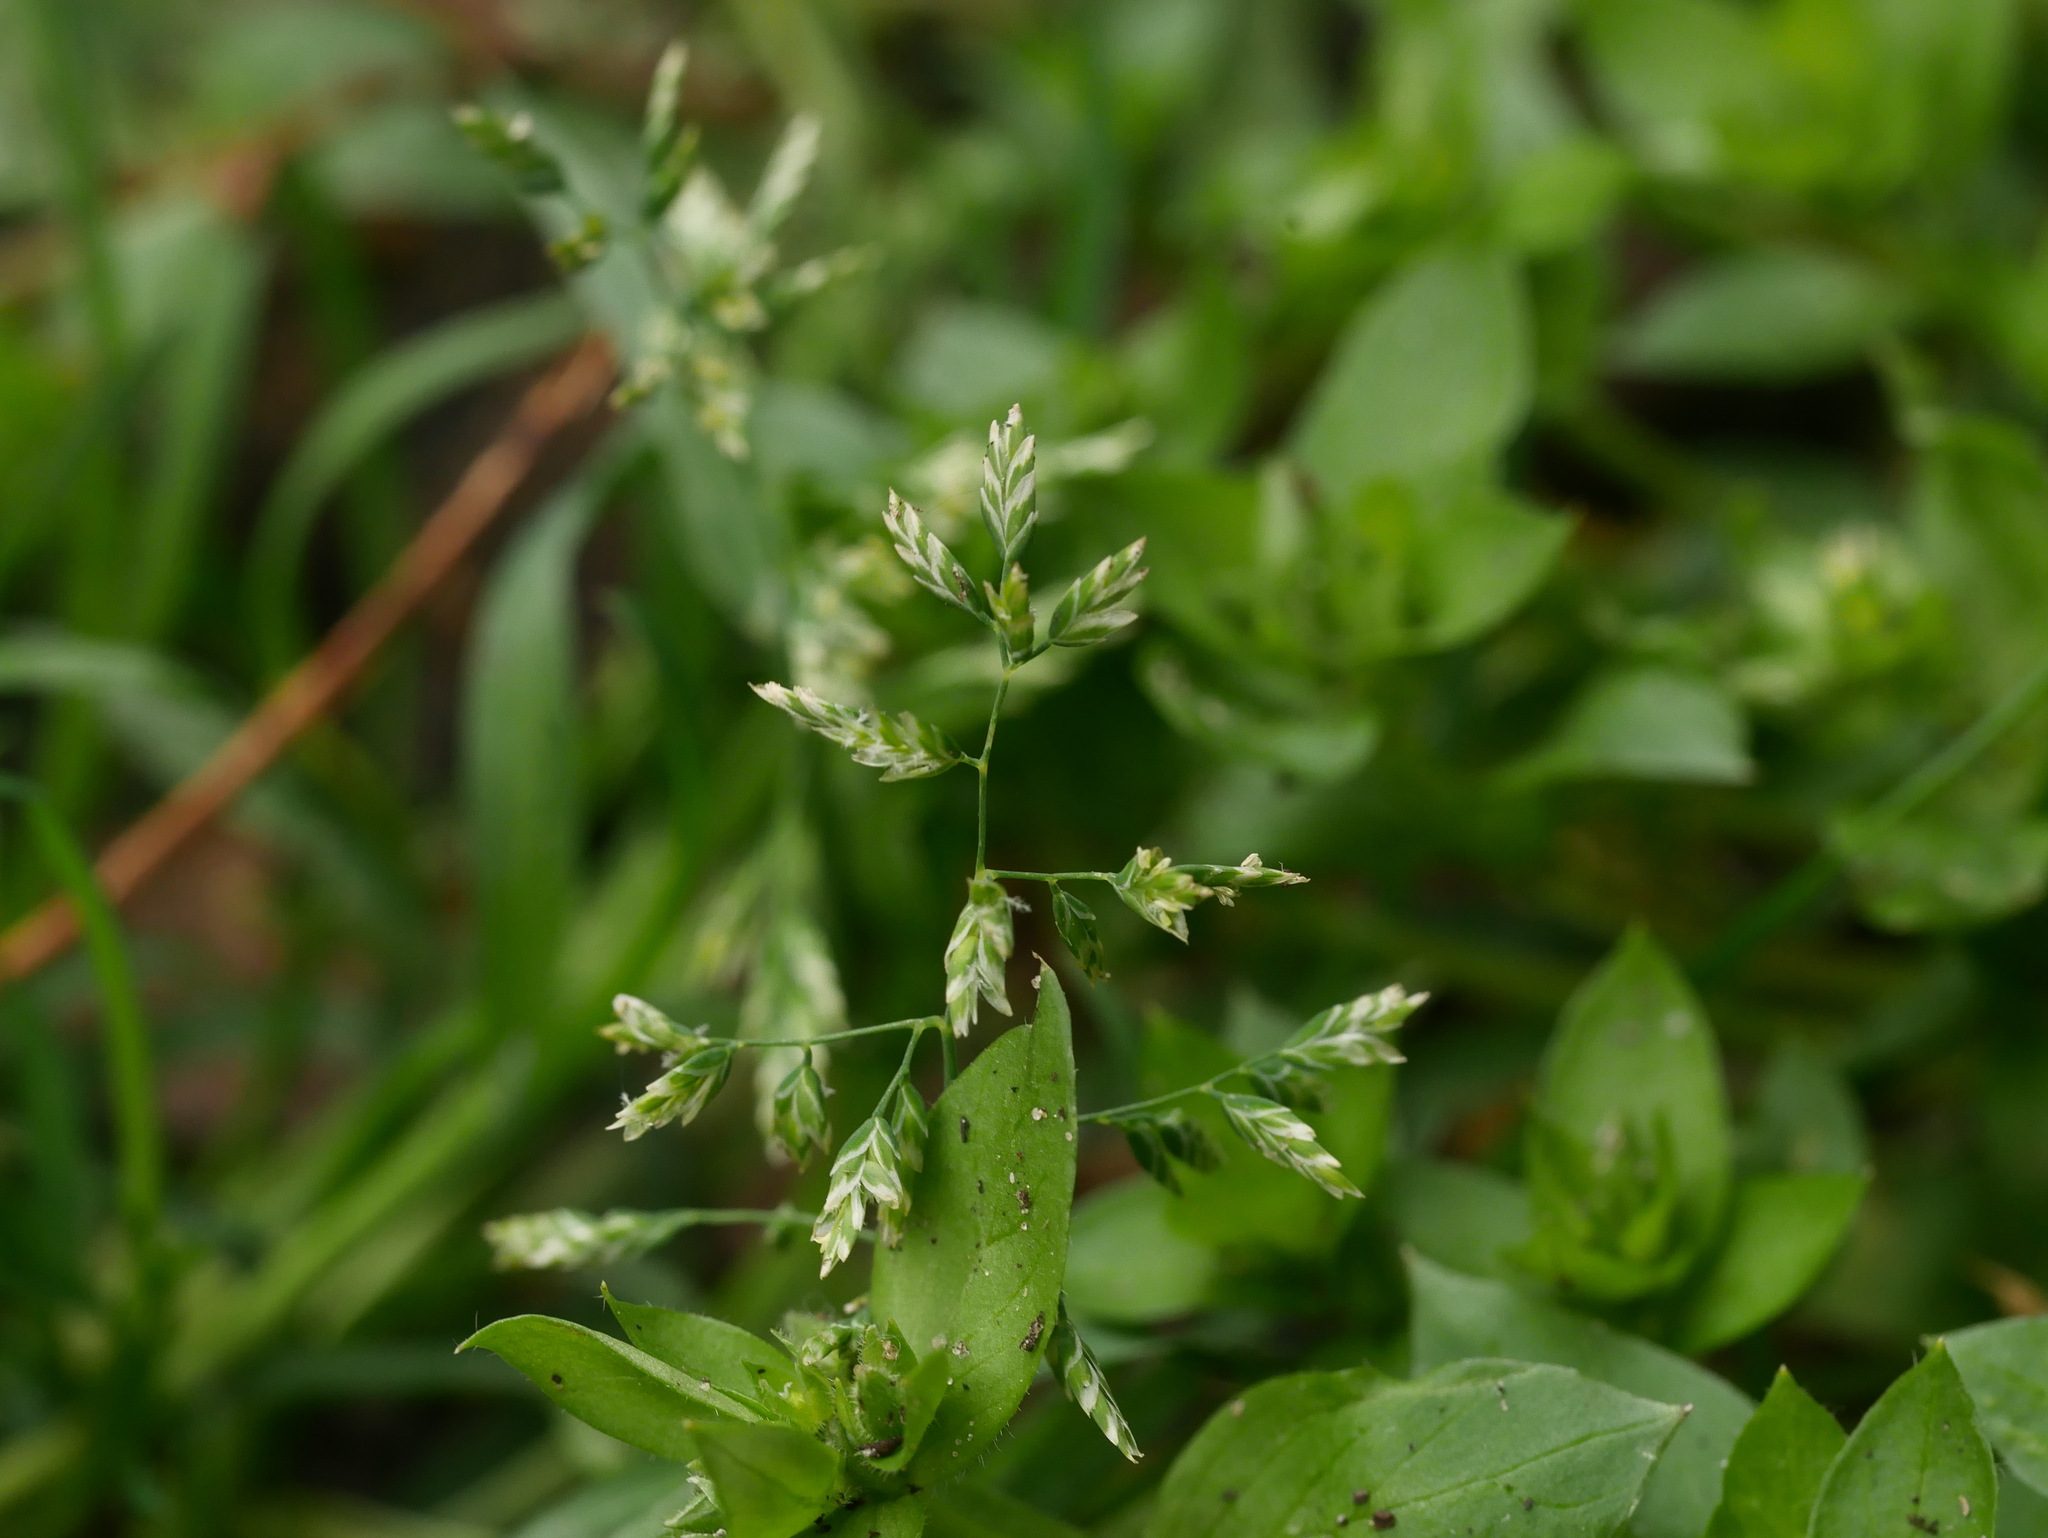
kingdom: Plantae
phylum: Tracheophyta
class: Liliopsida
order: Poales
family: Poaceae
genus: Poa
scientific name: Poa annua
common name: Annual bluegrass
